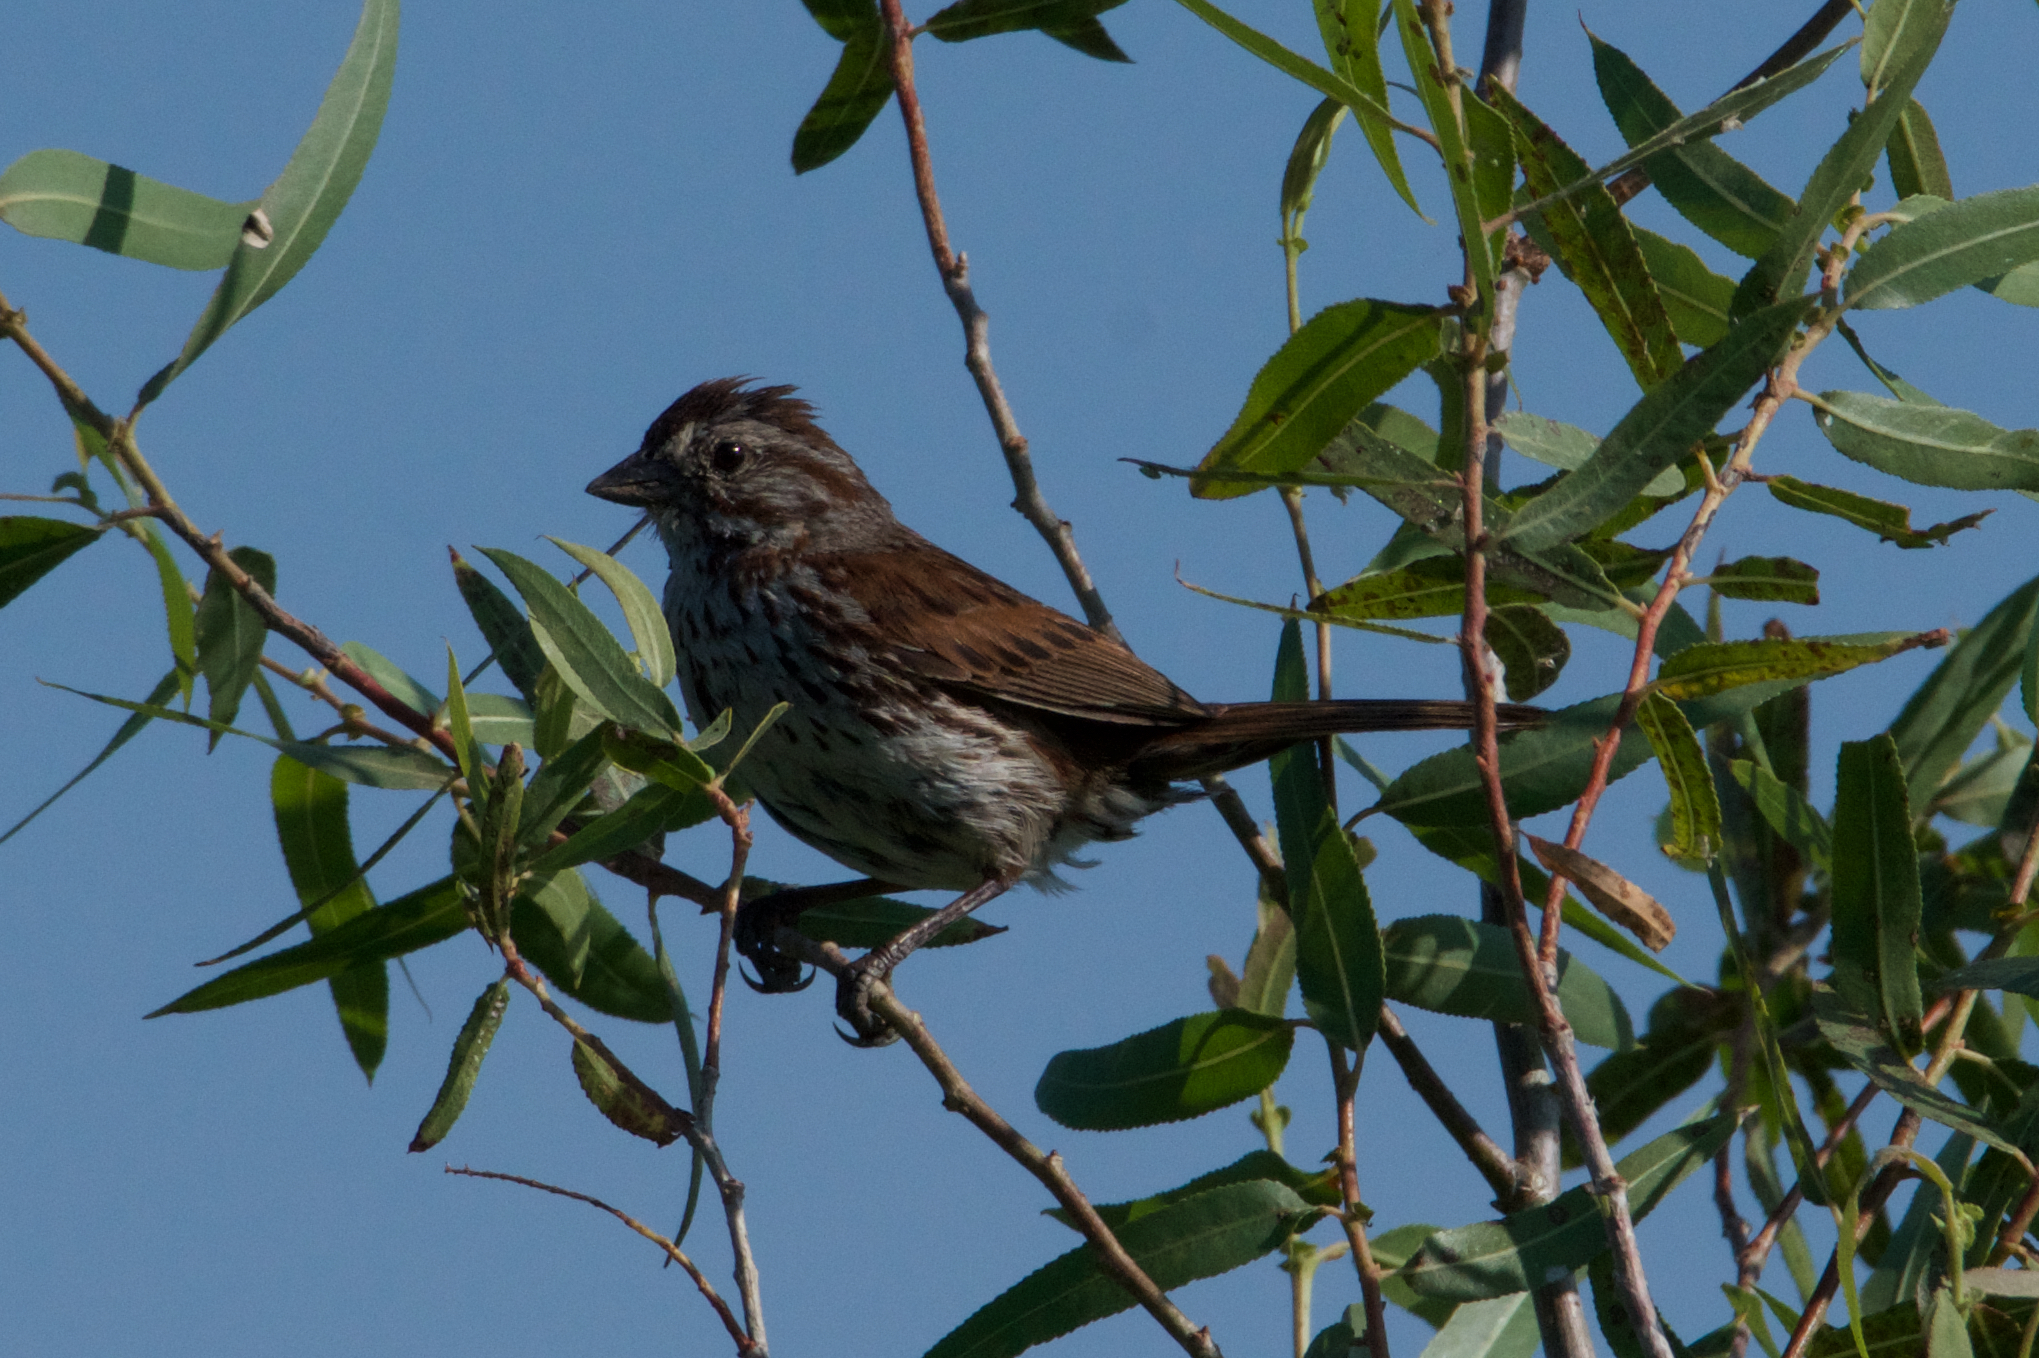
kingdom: Animalia
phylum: Chordata
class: Aves
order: Passeriformes
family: Passerellidae
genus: Melospiza
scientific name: Melospiza melodia
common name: Song sparrow
